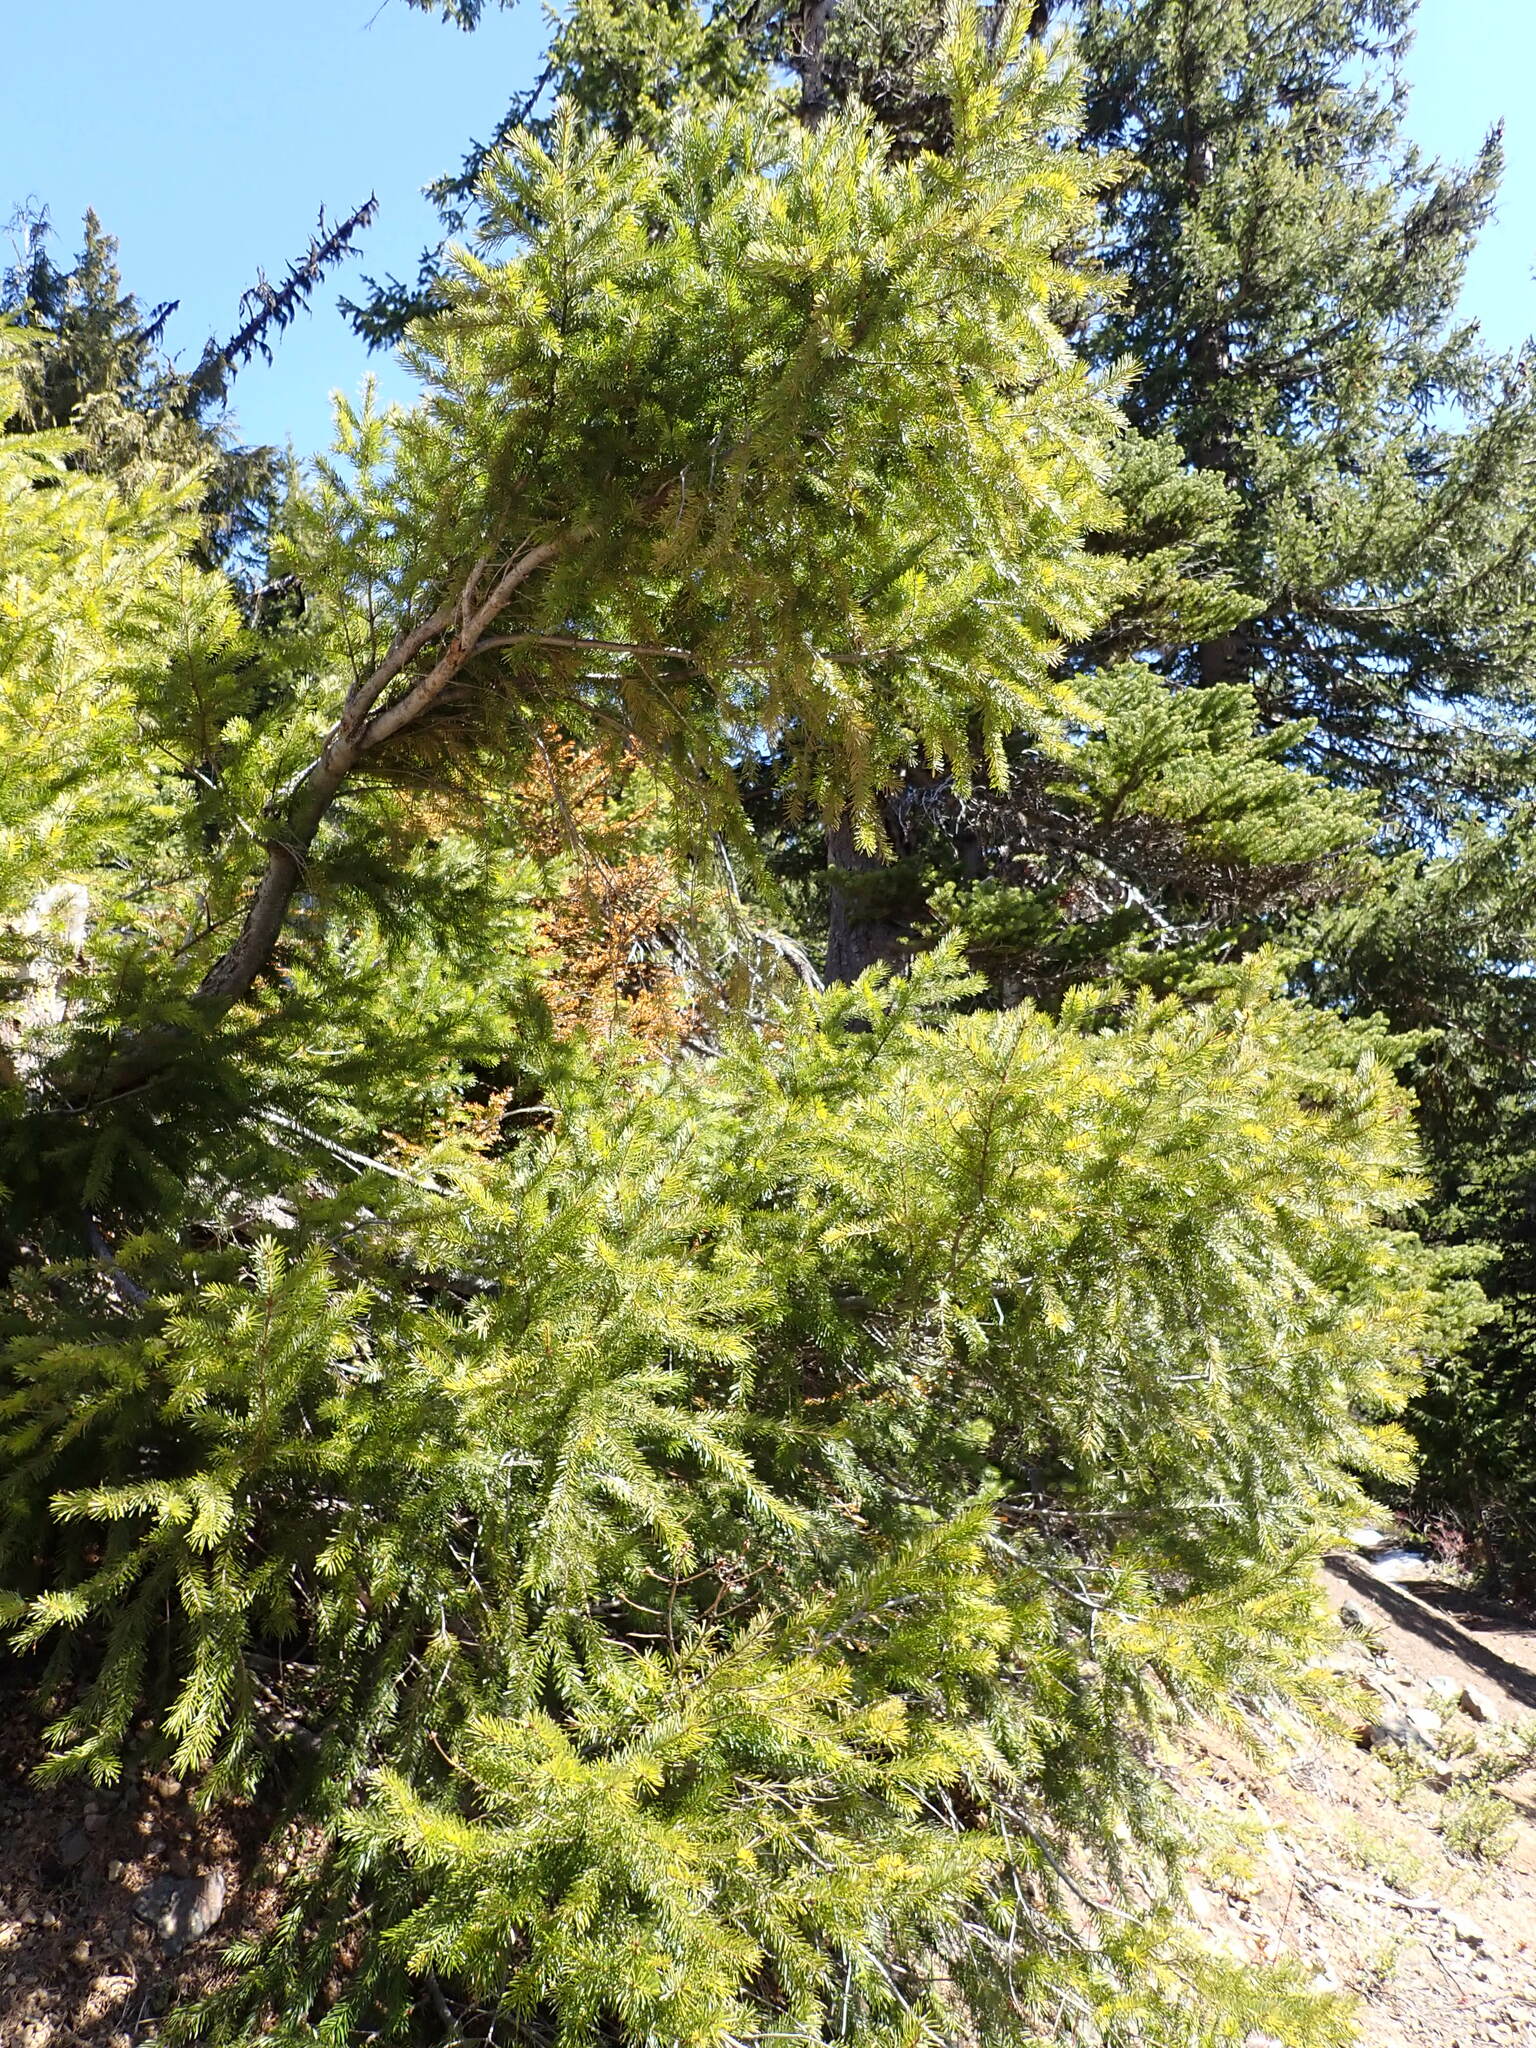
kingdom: Plantae
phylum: Tracheophyta
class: Pinopsida
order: Pinales
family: Pinaceae
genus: Pseudotsuga
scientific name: Pseudotsuga menziesii
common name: Douglas fir
